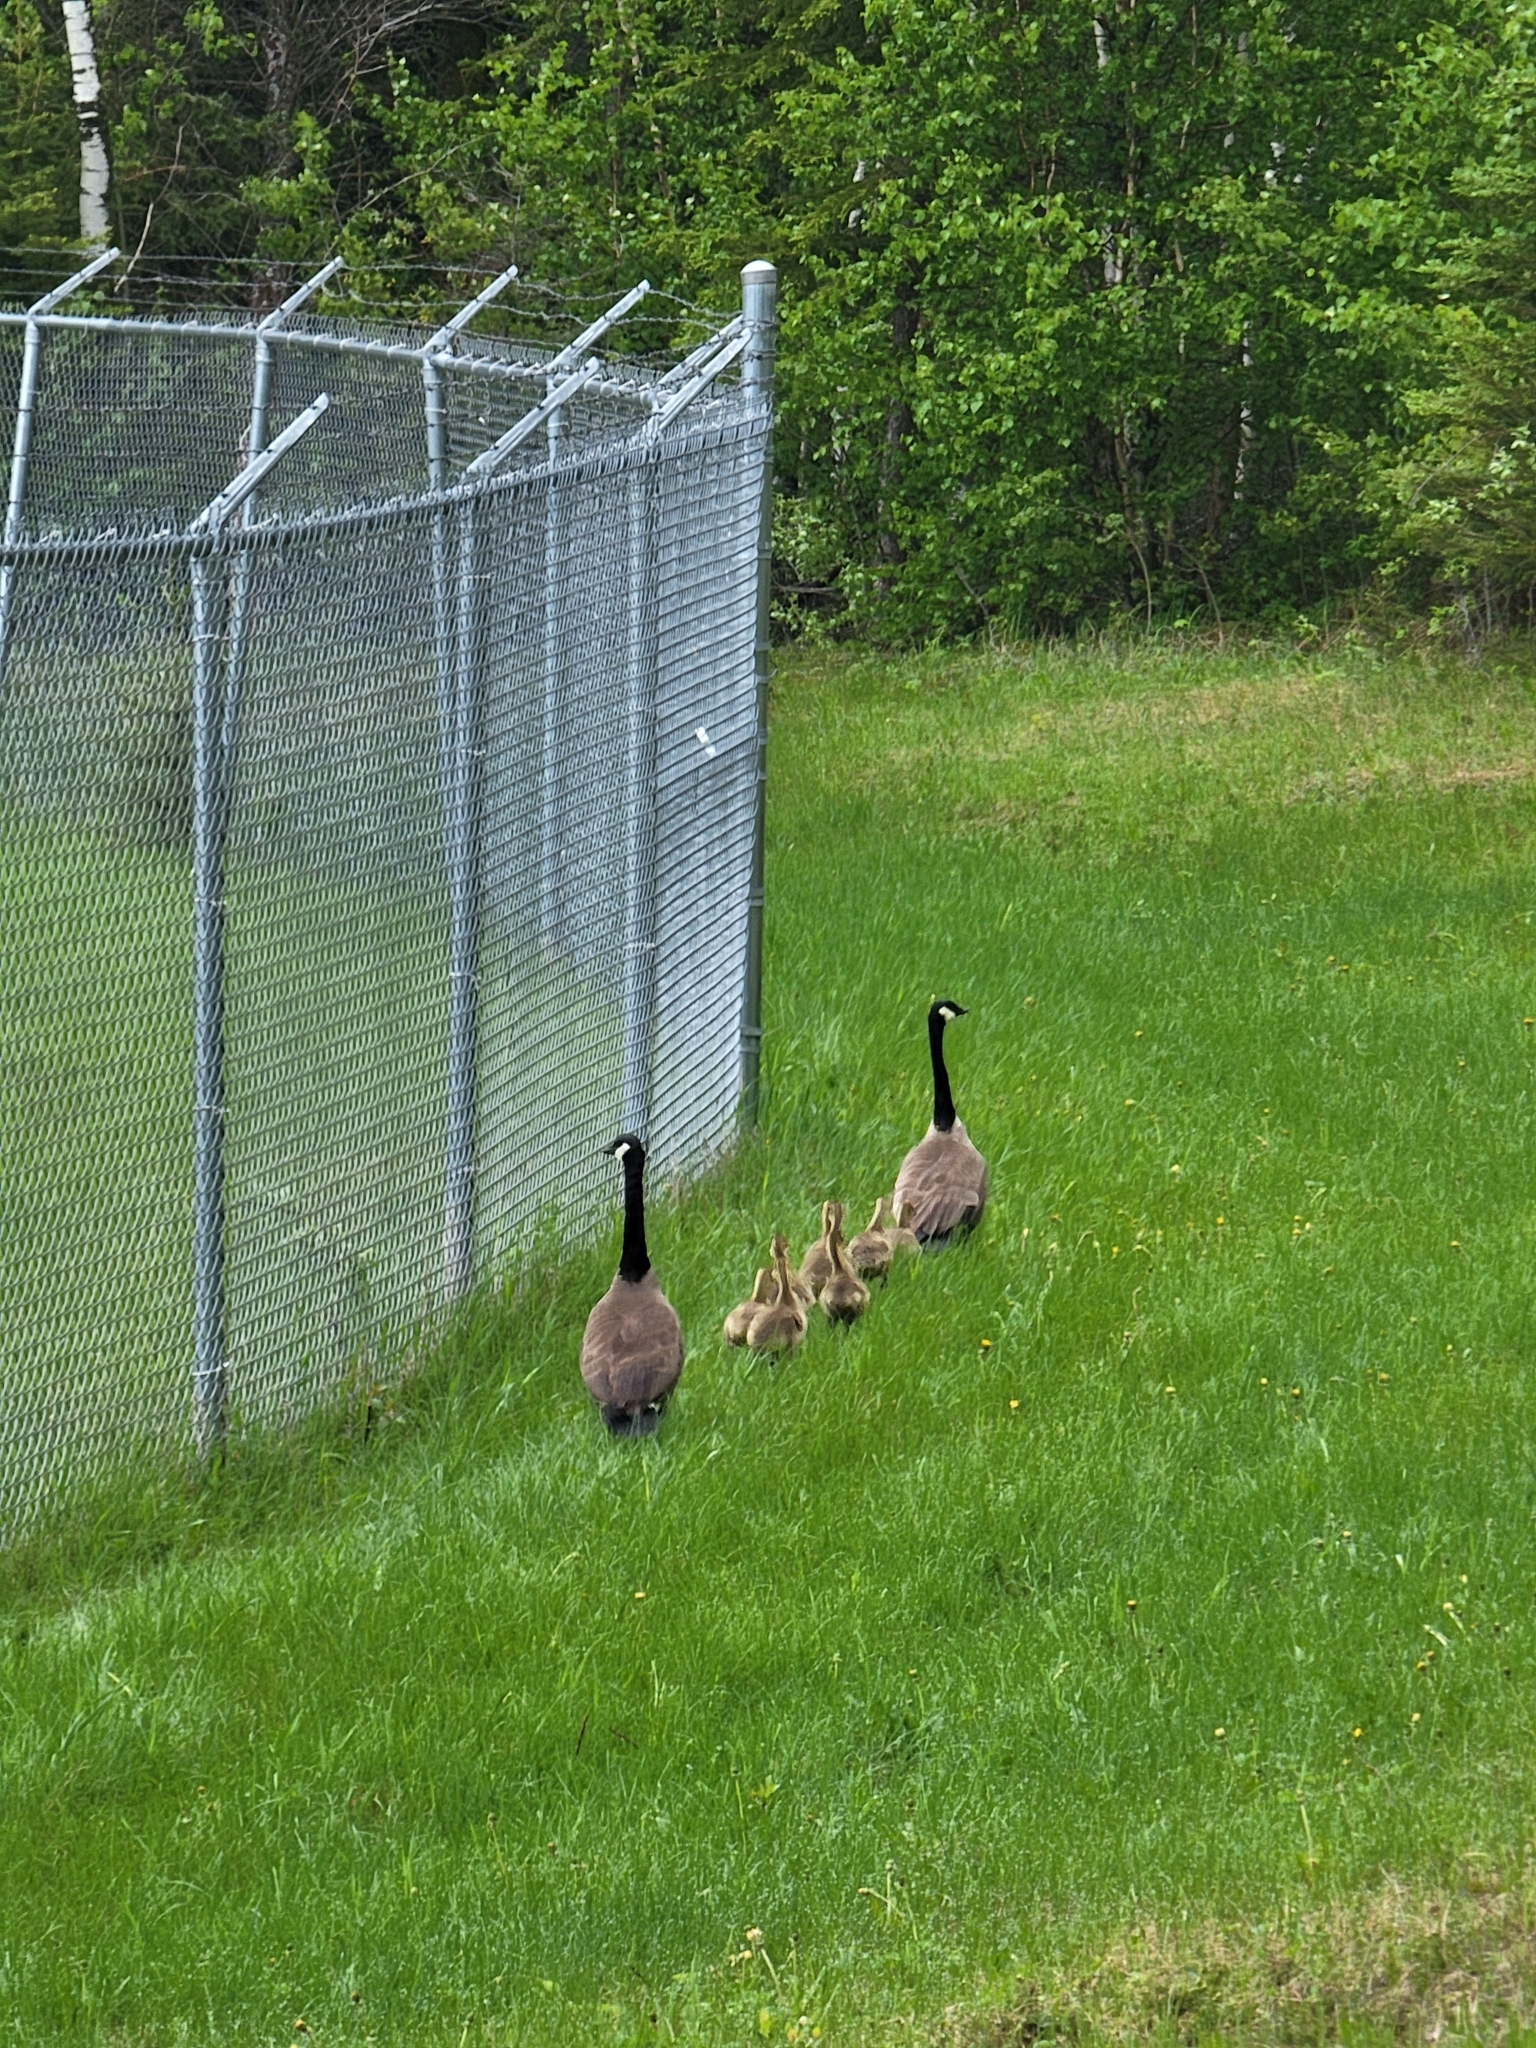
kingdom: Animalia
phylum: Chordata
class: Aves
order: Anseriformes
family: Anatidae
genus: Branta
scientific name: Branta canadensis
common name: Canada goose
